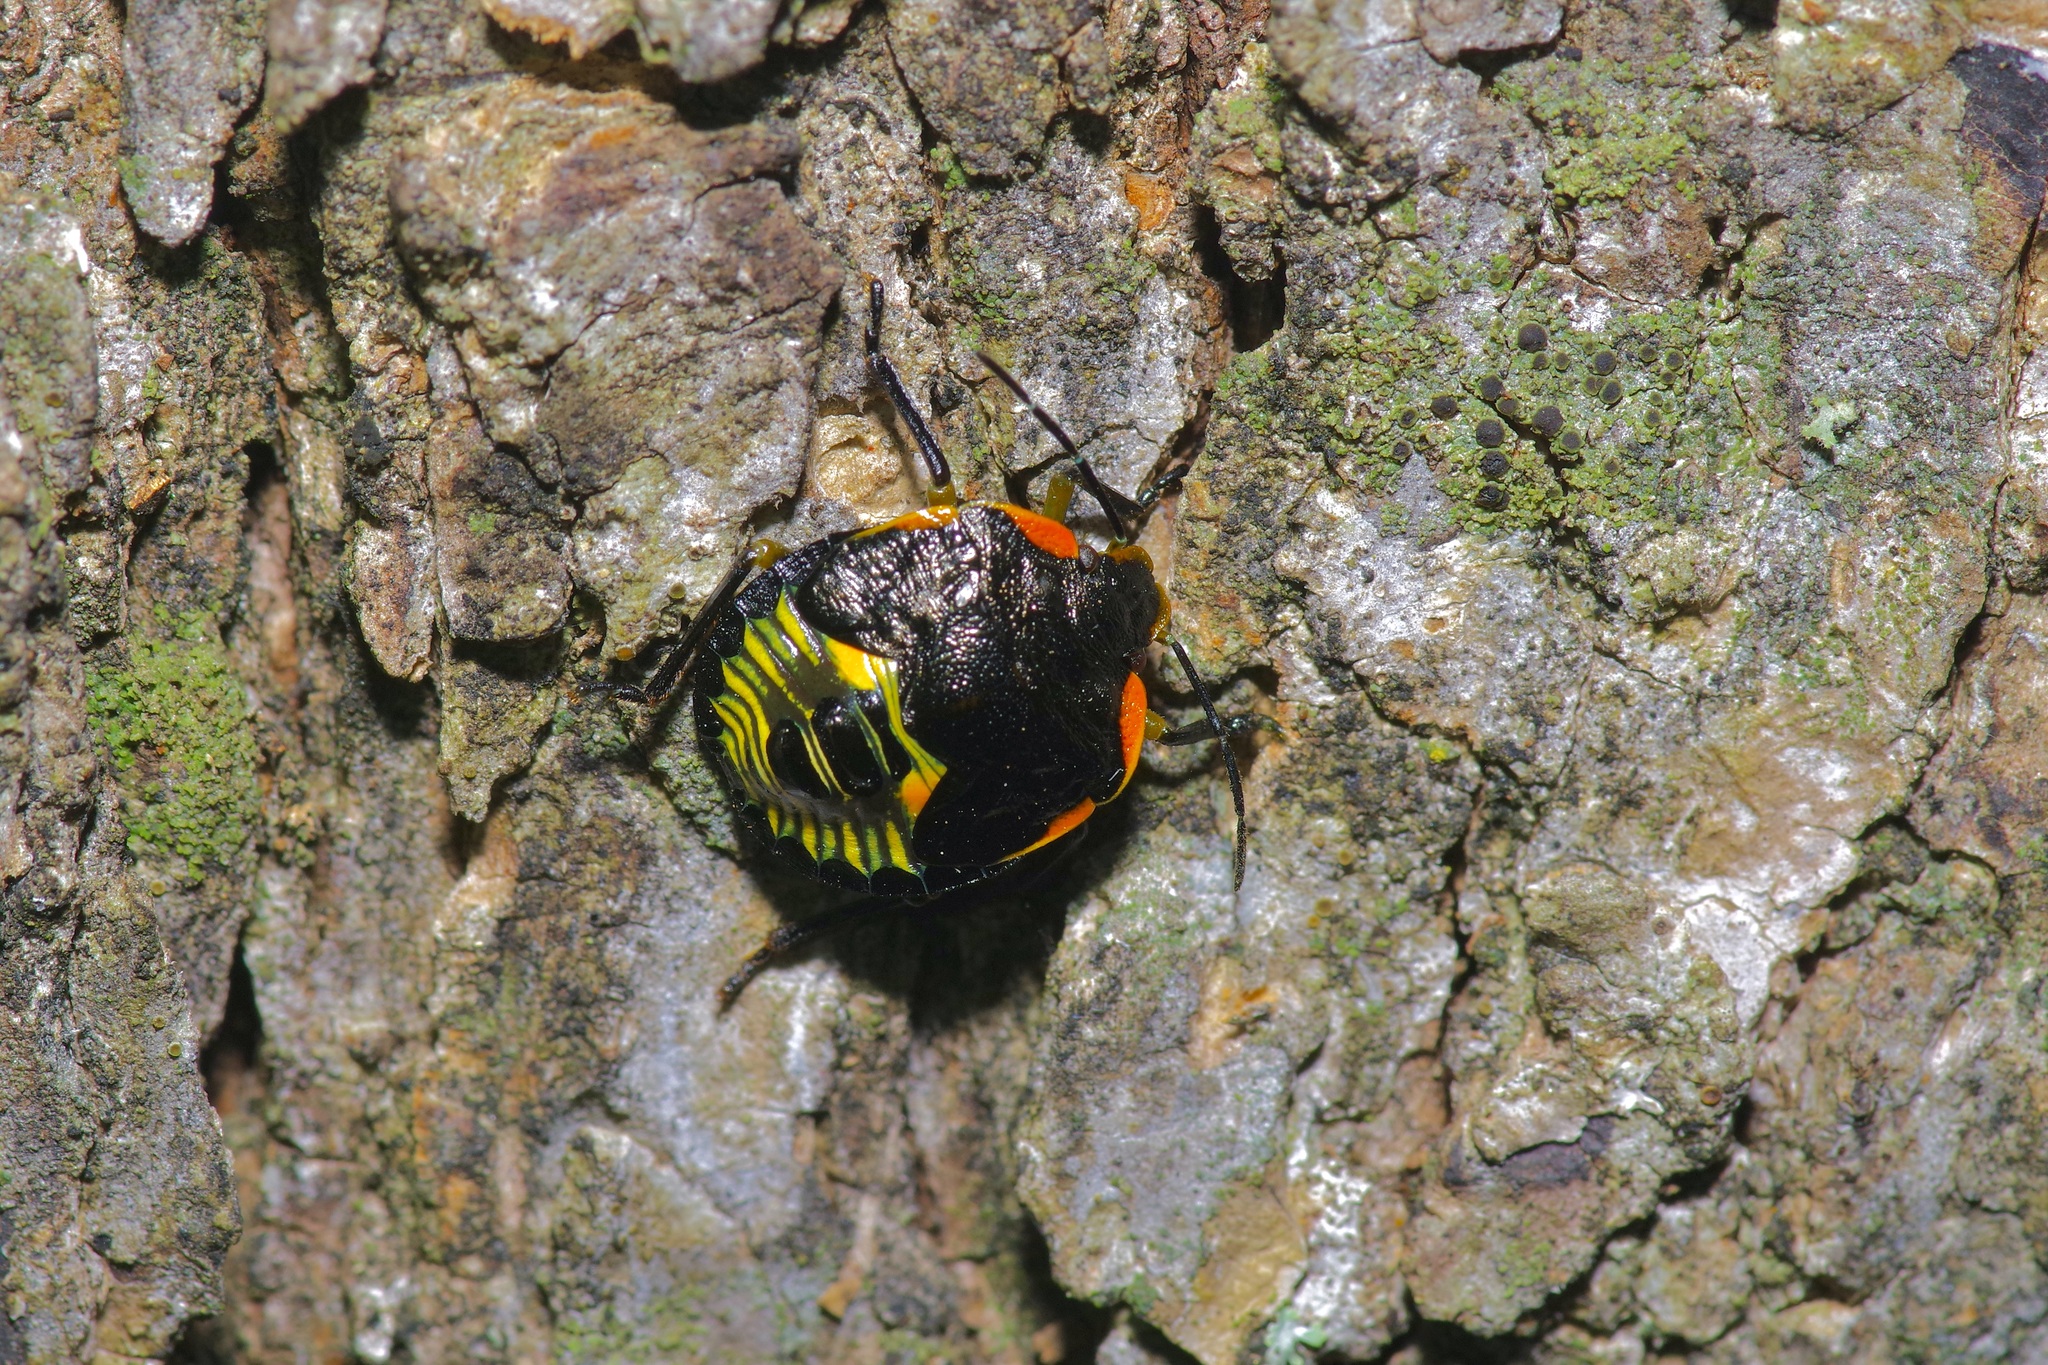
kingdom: Animalia
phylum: Arthropoda
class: Insecta
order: Hemiptera
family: Pentatomidae
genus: Chinavia
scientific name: Chinavia hilaris
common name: Green stink bug
